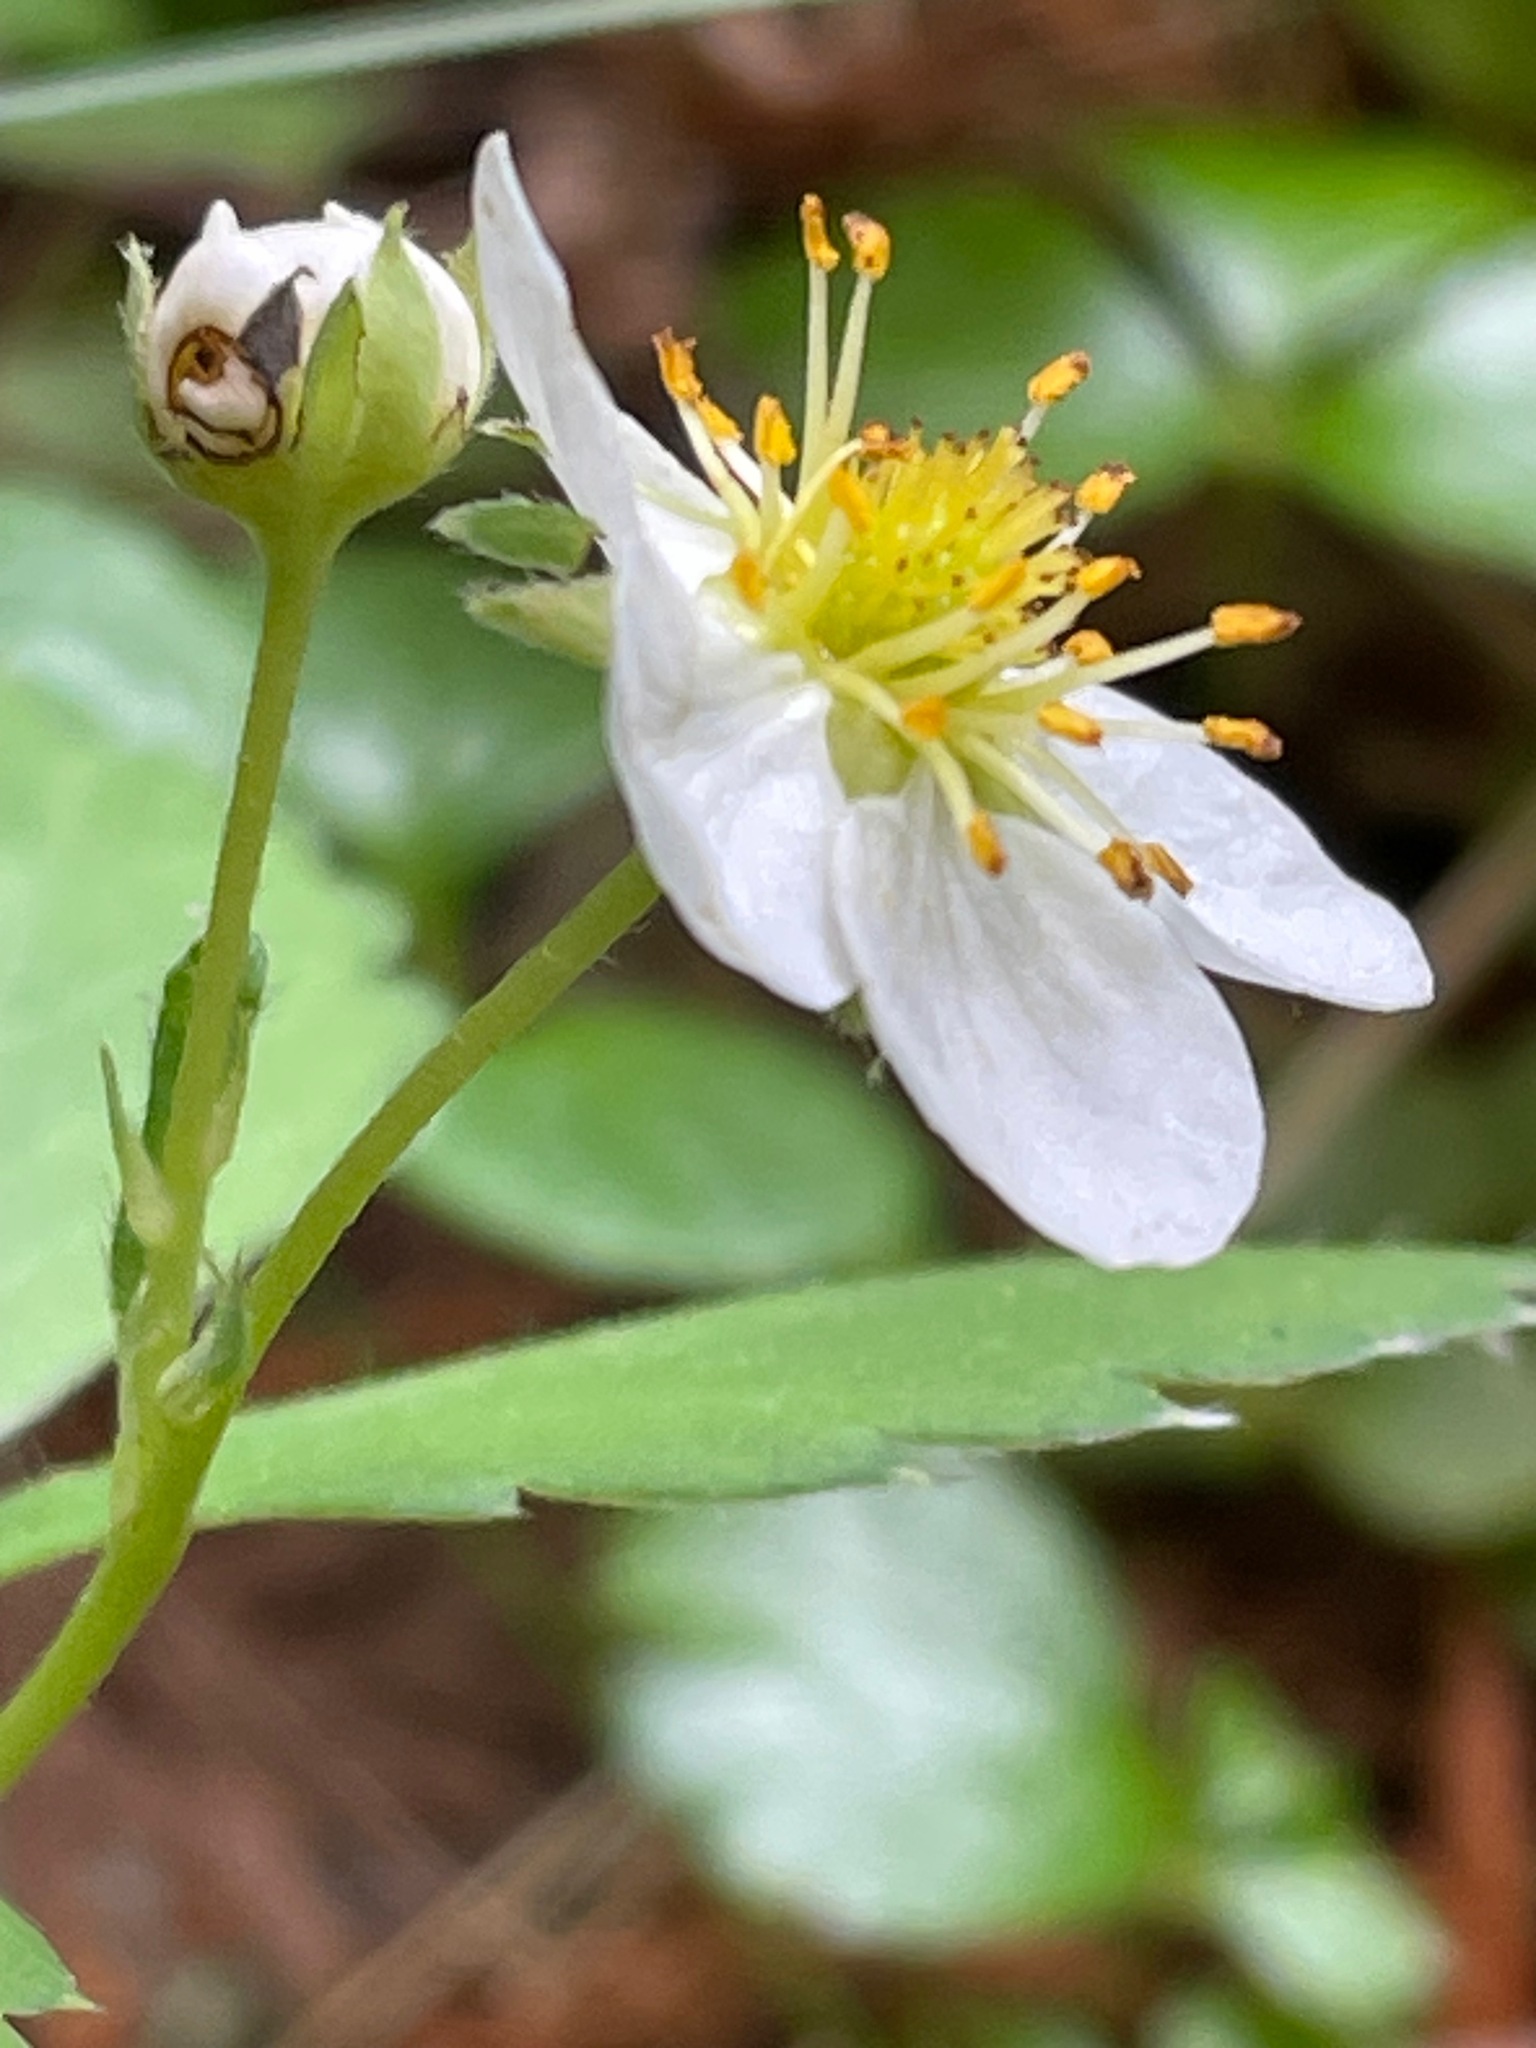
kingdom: Plantae
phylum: Tracheophyta
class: Magnoliopsida
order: Rosales
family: Rosaceae
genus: Fragaria
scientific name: Fragaria virginiana
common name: Thickleaved wild strawberry
